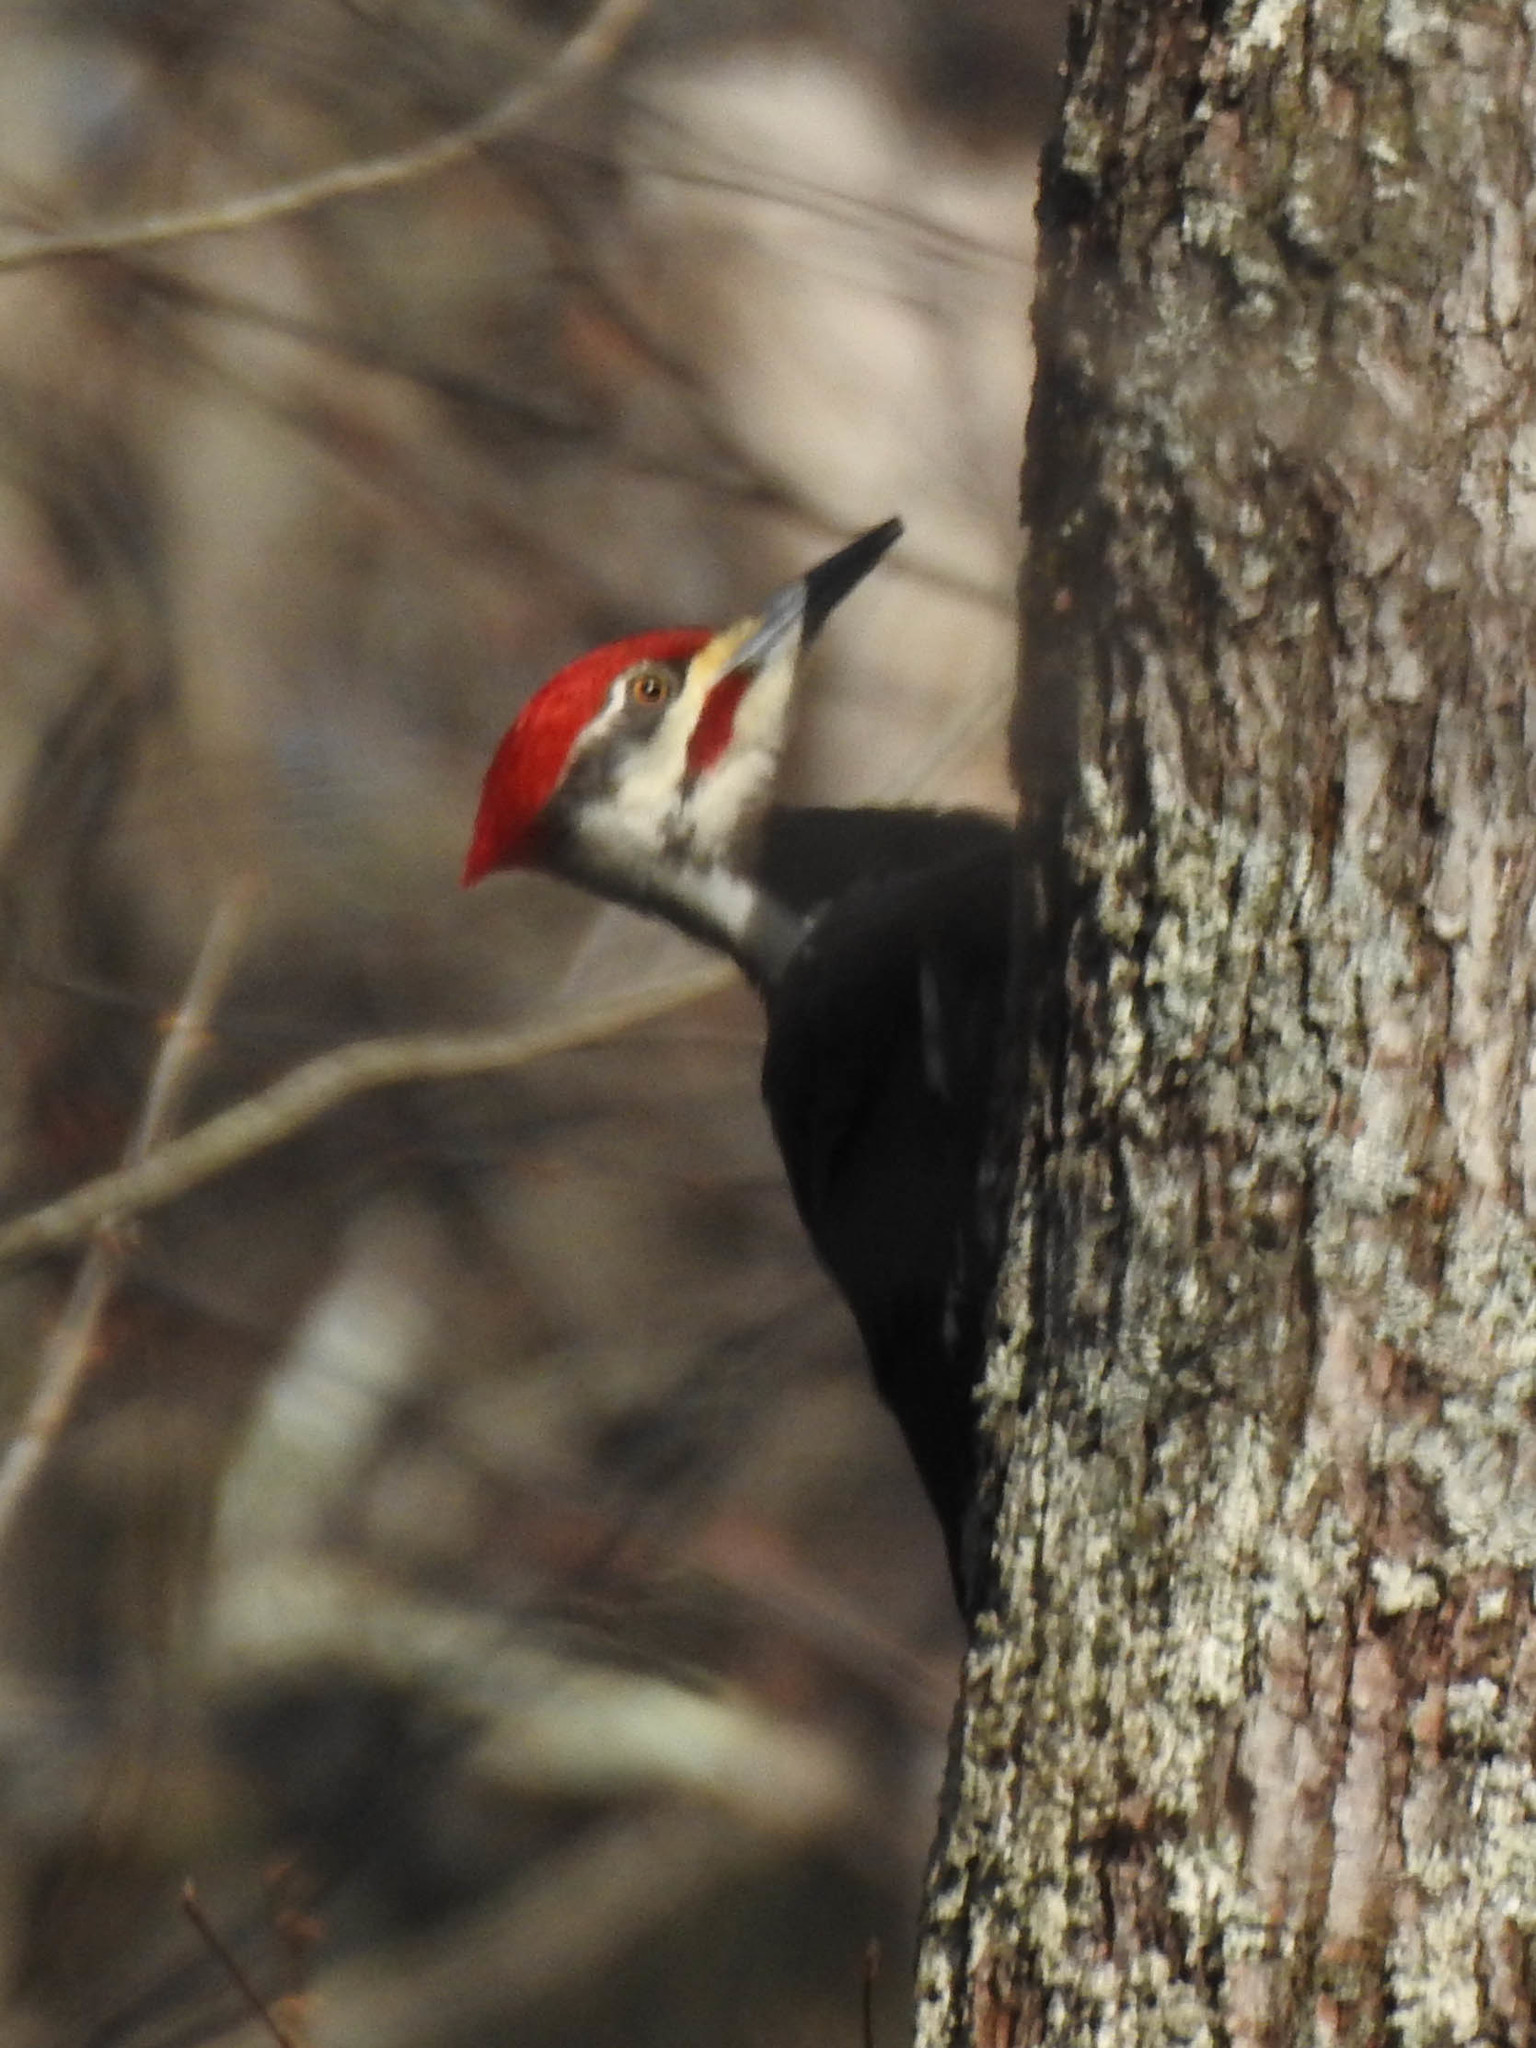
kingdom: Animalia
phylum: Chordata
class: Aves
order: Piciformes
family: Picidae
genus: Dryocopus
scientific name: Dryocopus pileatus
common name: Pileated woodpecker
